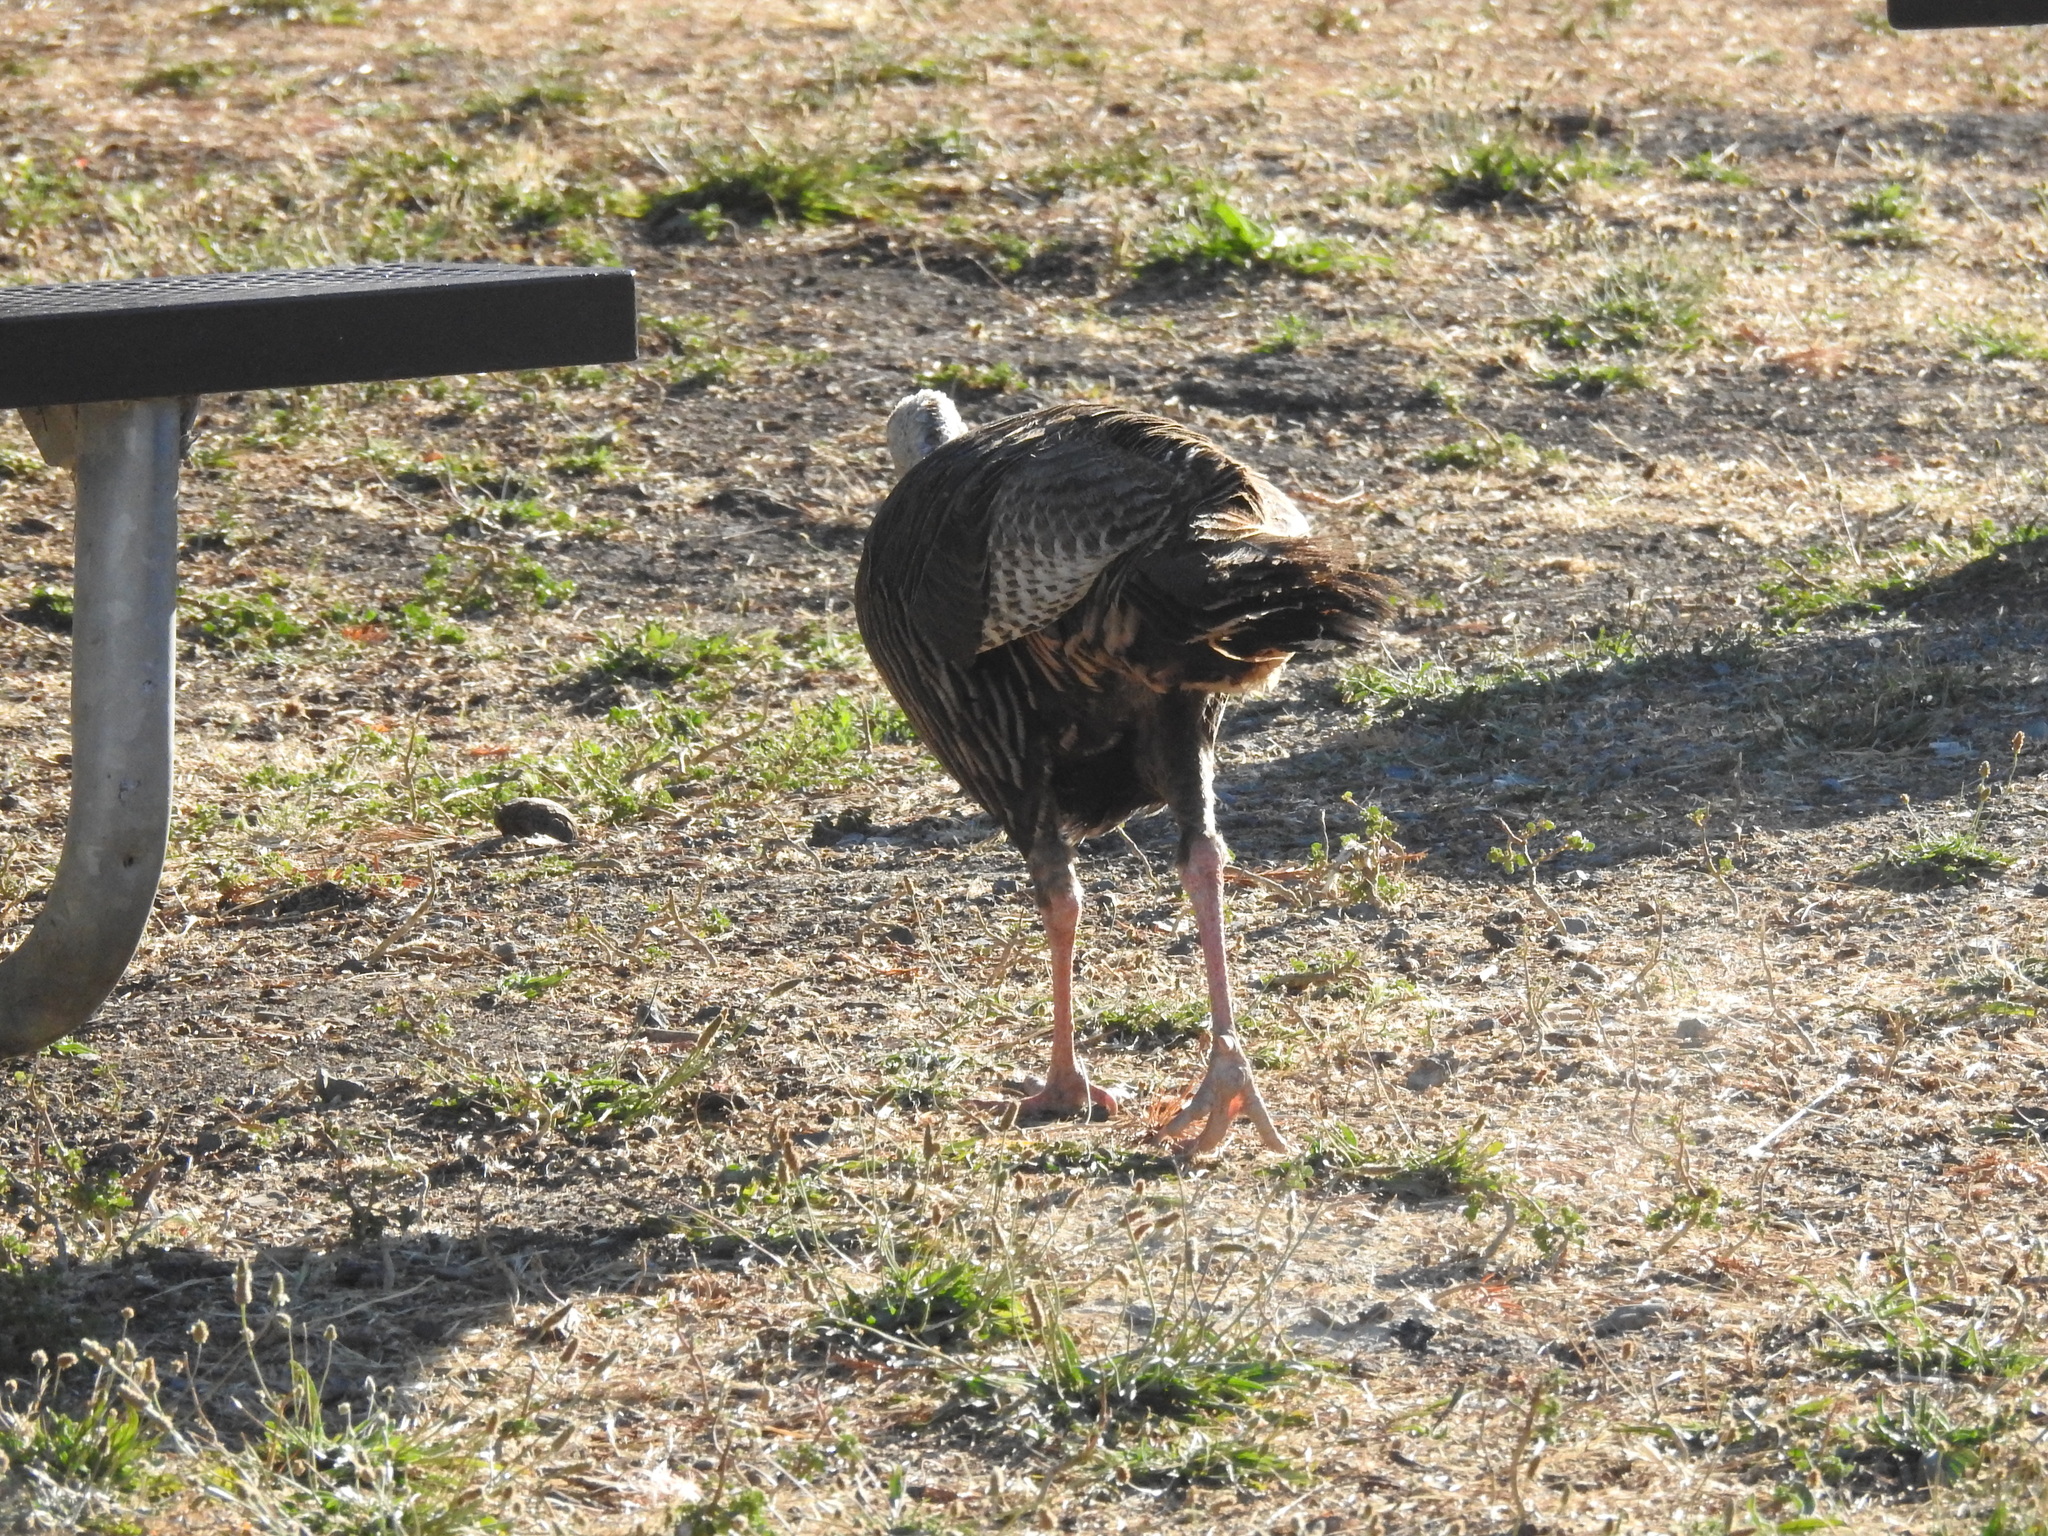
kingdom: Animalia
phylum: Chordata
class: Aves
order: Galliformes
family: Phasianidae
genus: Meleagris
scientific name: Meleagris gallopavo
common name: Wild turkey
